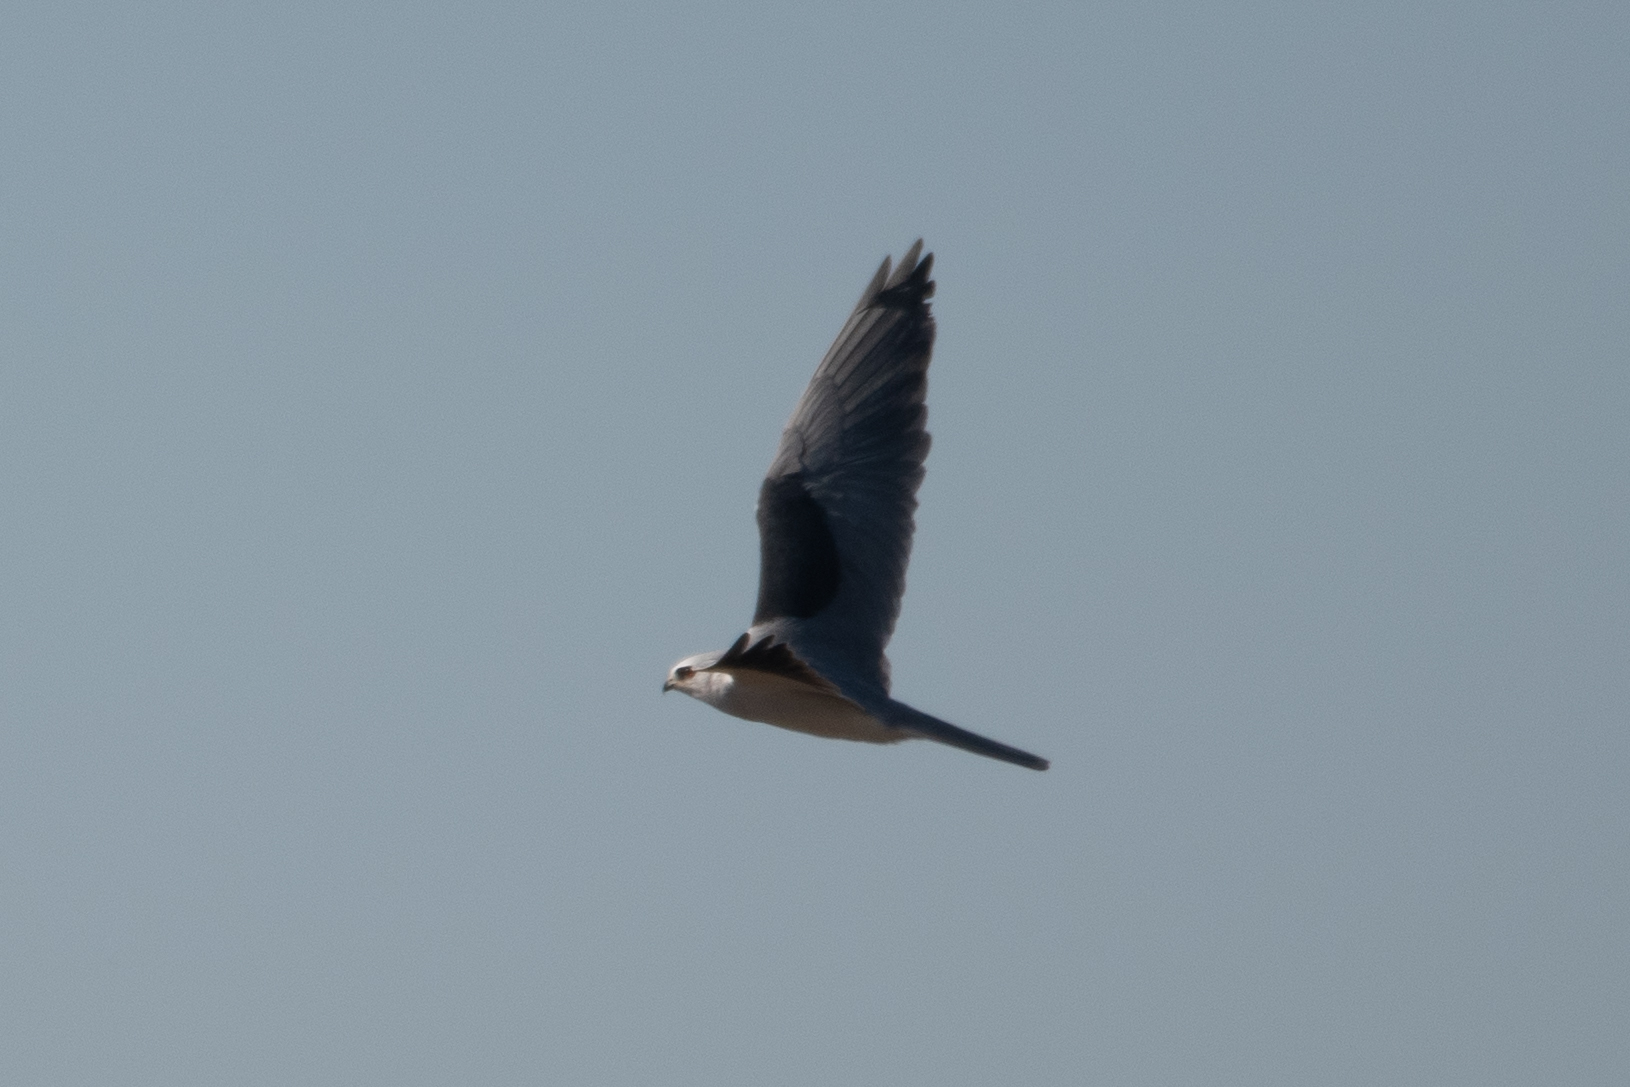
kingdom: Animalia
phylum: Chordata
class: Aves
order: Accipitriformes
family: Accipitridae
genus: Elanus
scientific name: Elanus leucurus
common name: White-tailed kite
